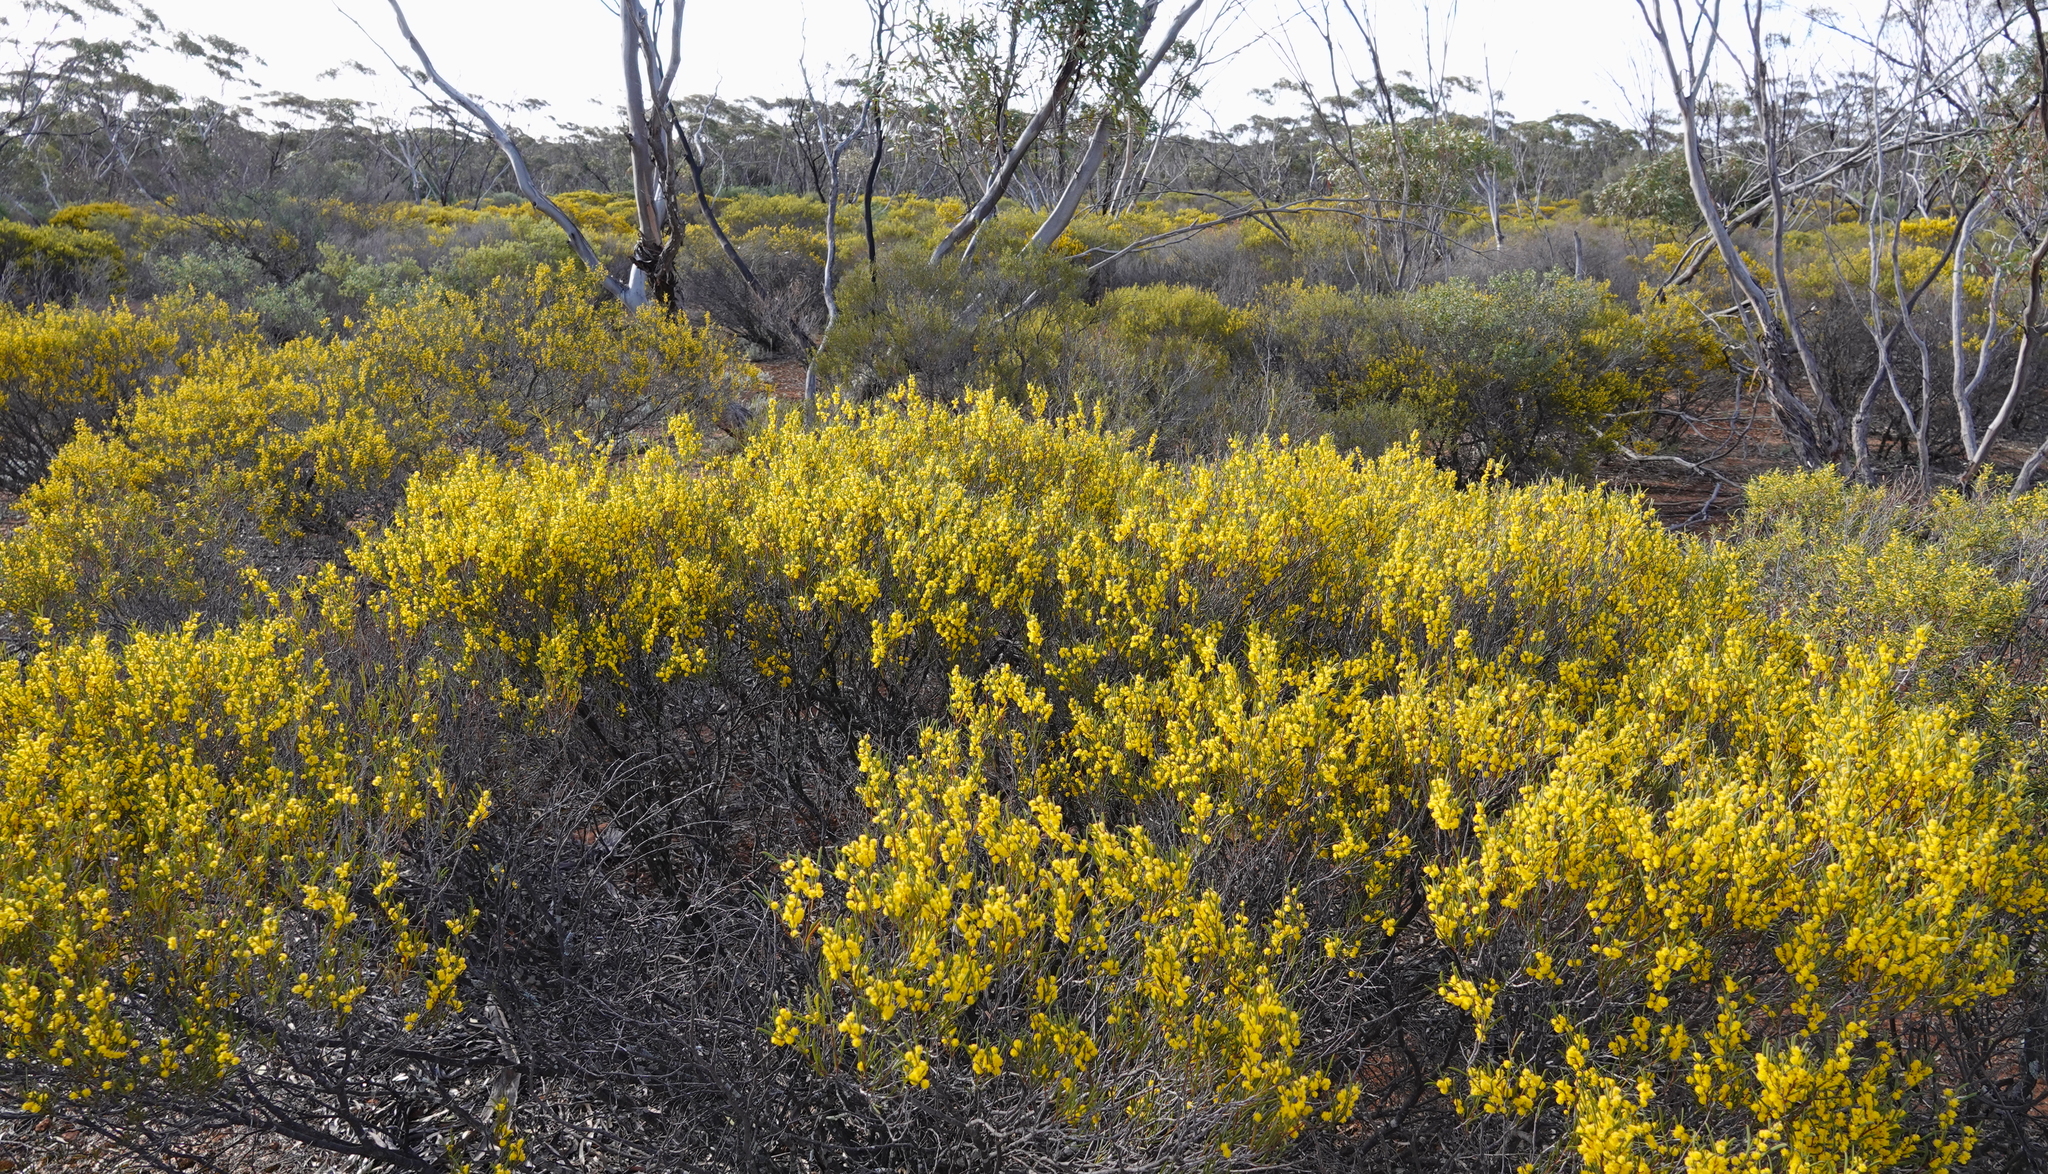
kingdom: Plantae
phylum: Tracheophyta
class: Magnoliopsida
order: Fabales
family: Fabaceae
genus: Acacia
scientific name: Acacia montana
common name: Mallee wattle
